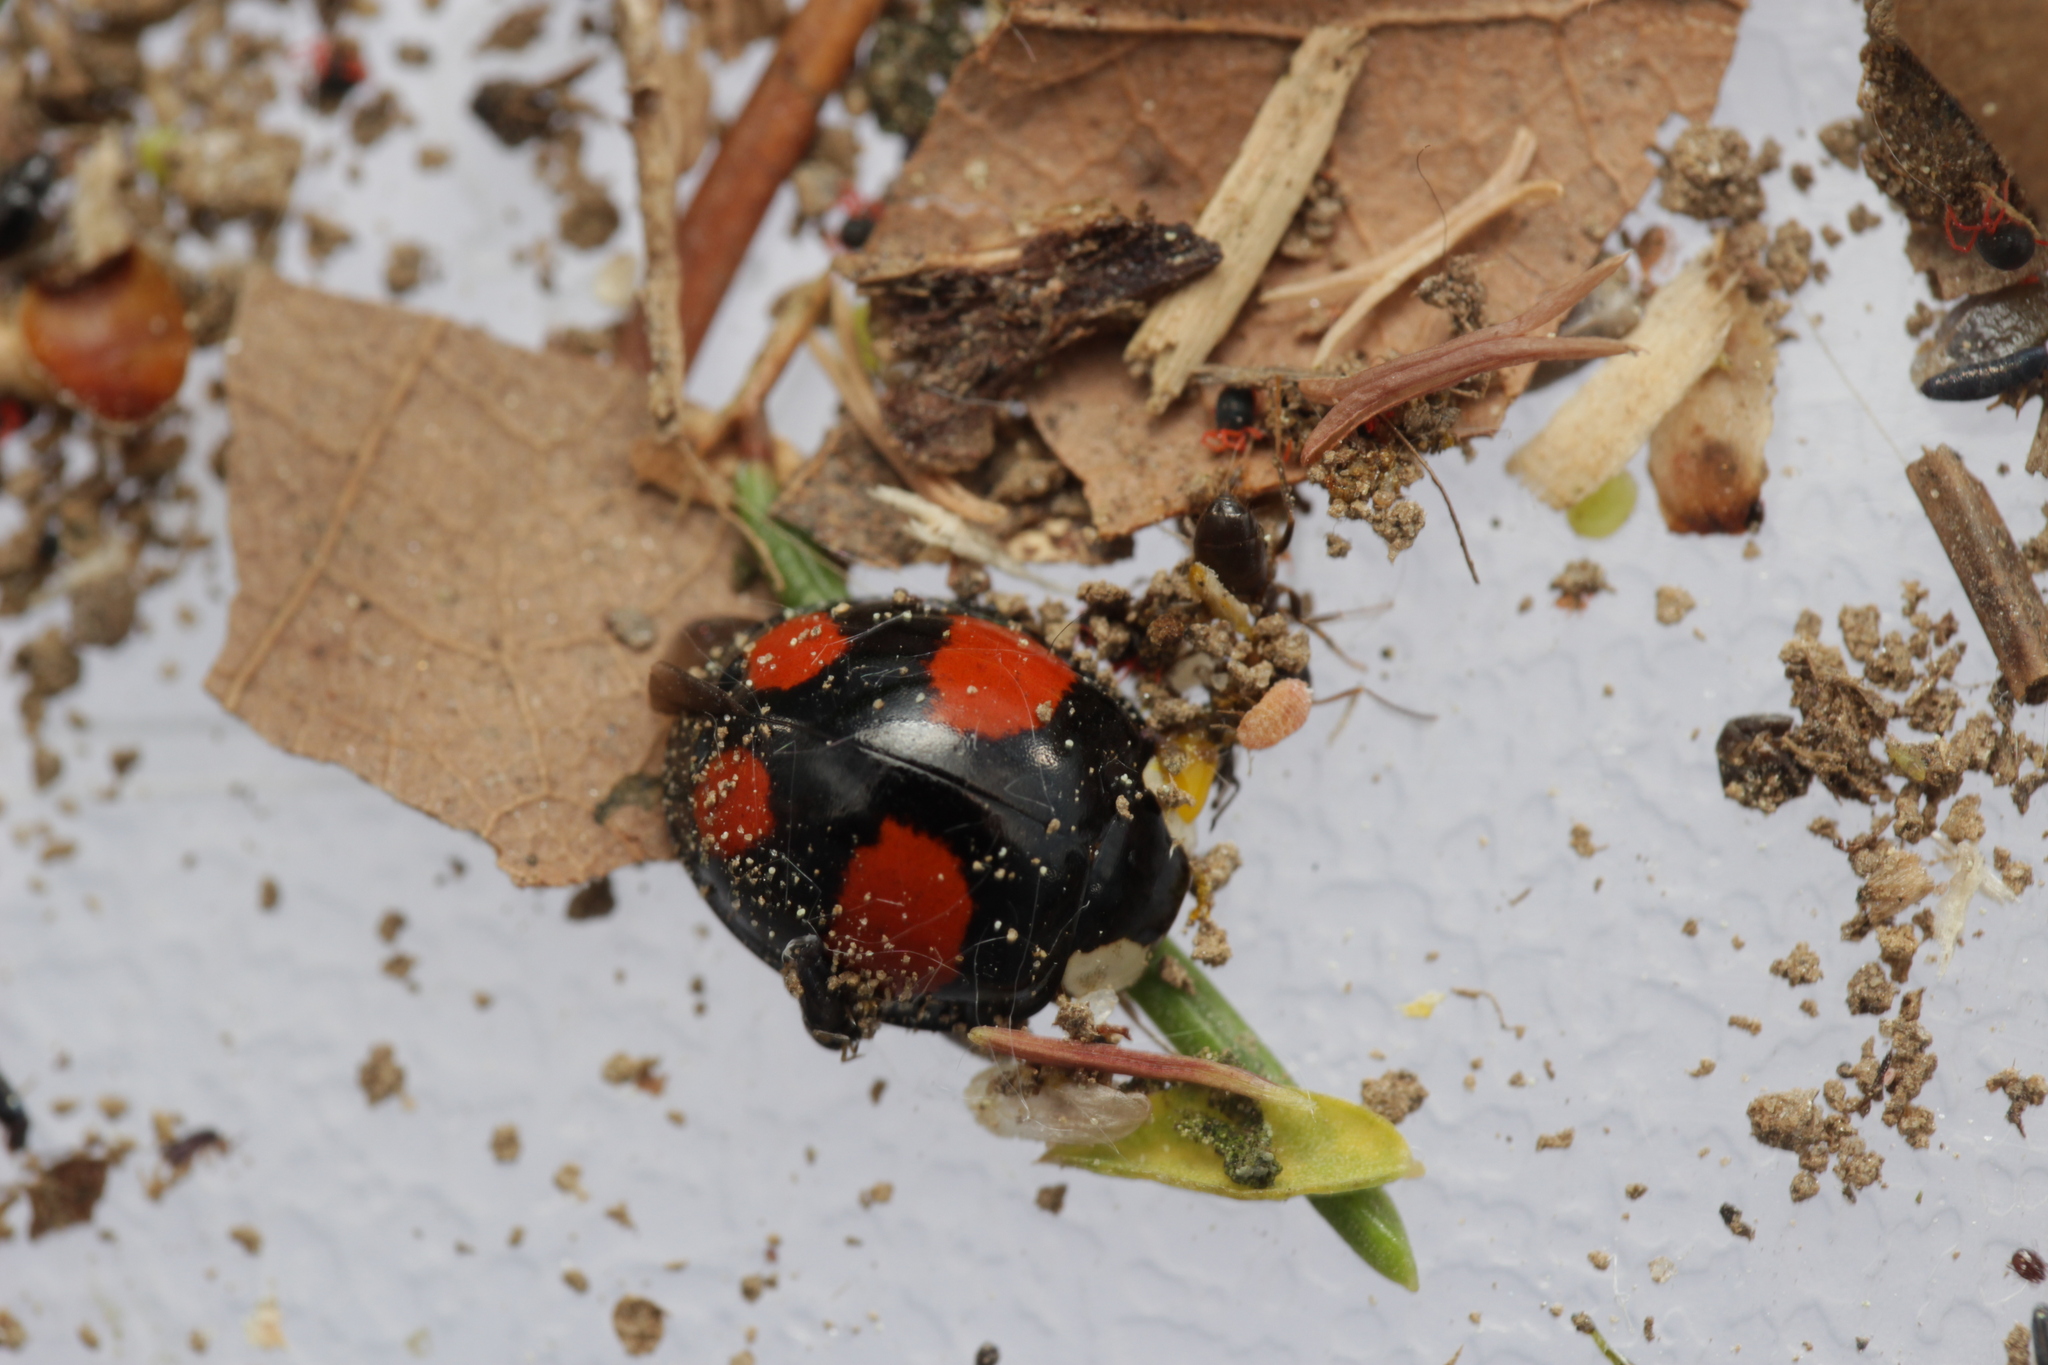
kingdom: Animalia
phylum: Arthropoda
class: Insecta
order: Coleoptera
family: Coccinellidae
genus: Harmonia
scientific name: Harmonia axyridis
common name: Harlequin ladybird
